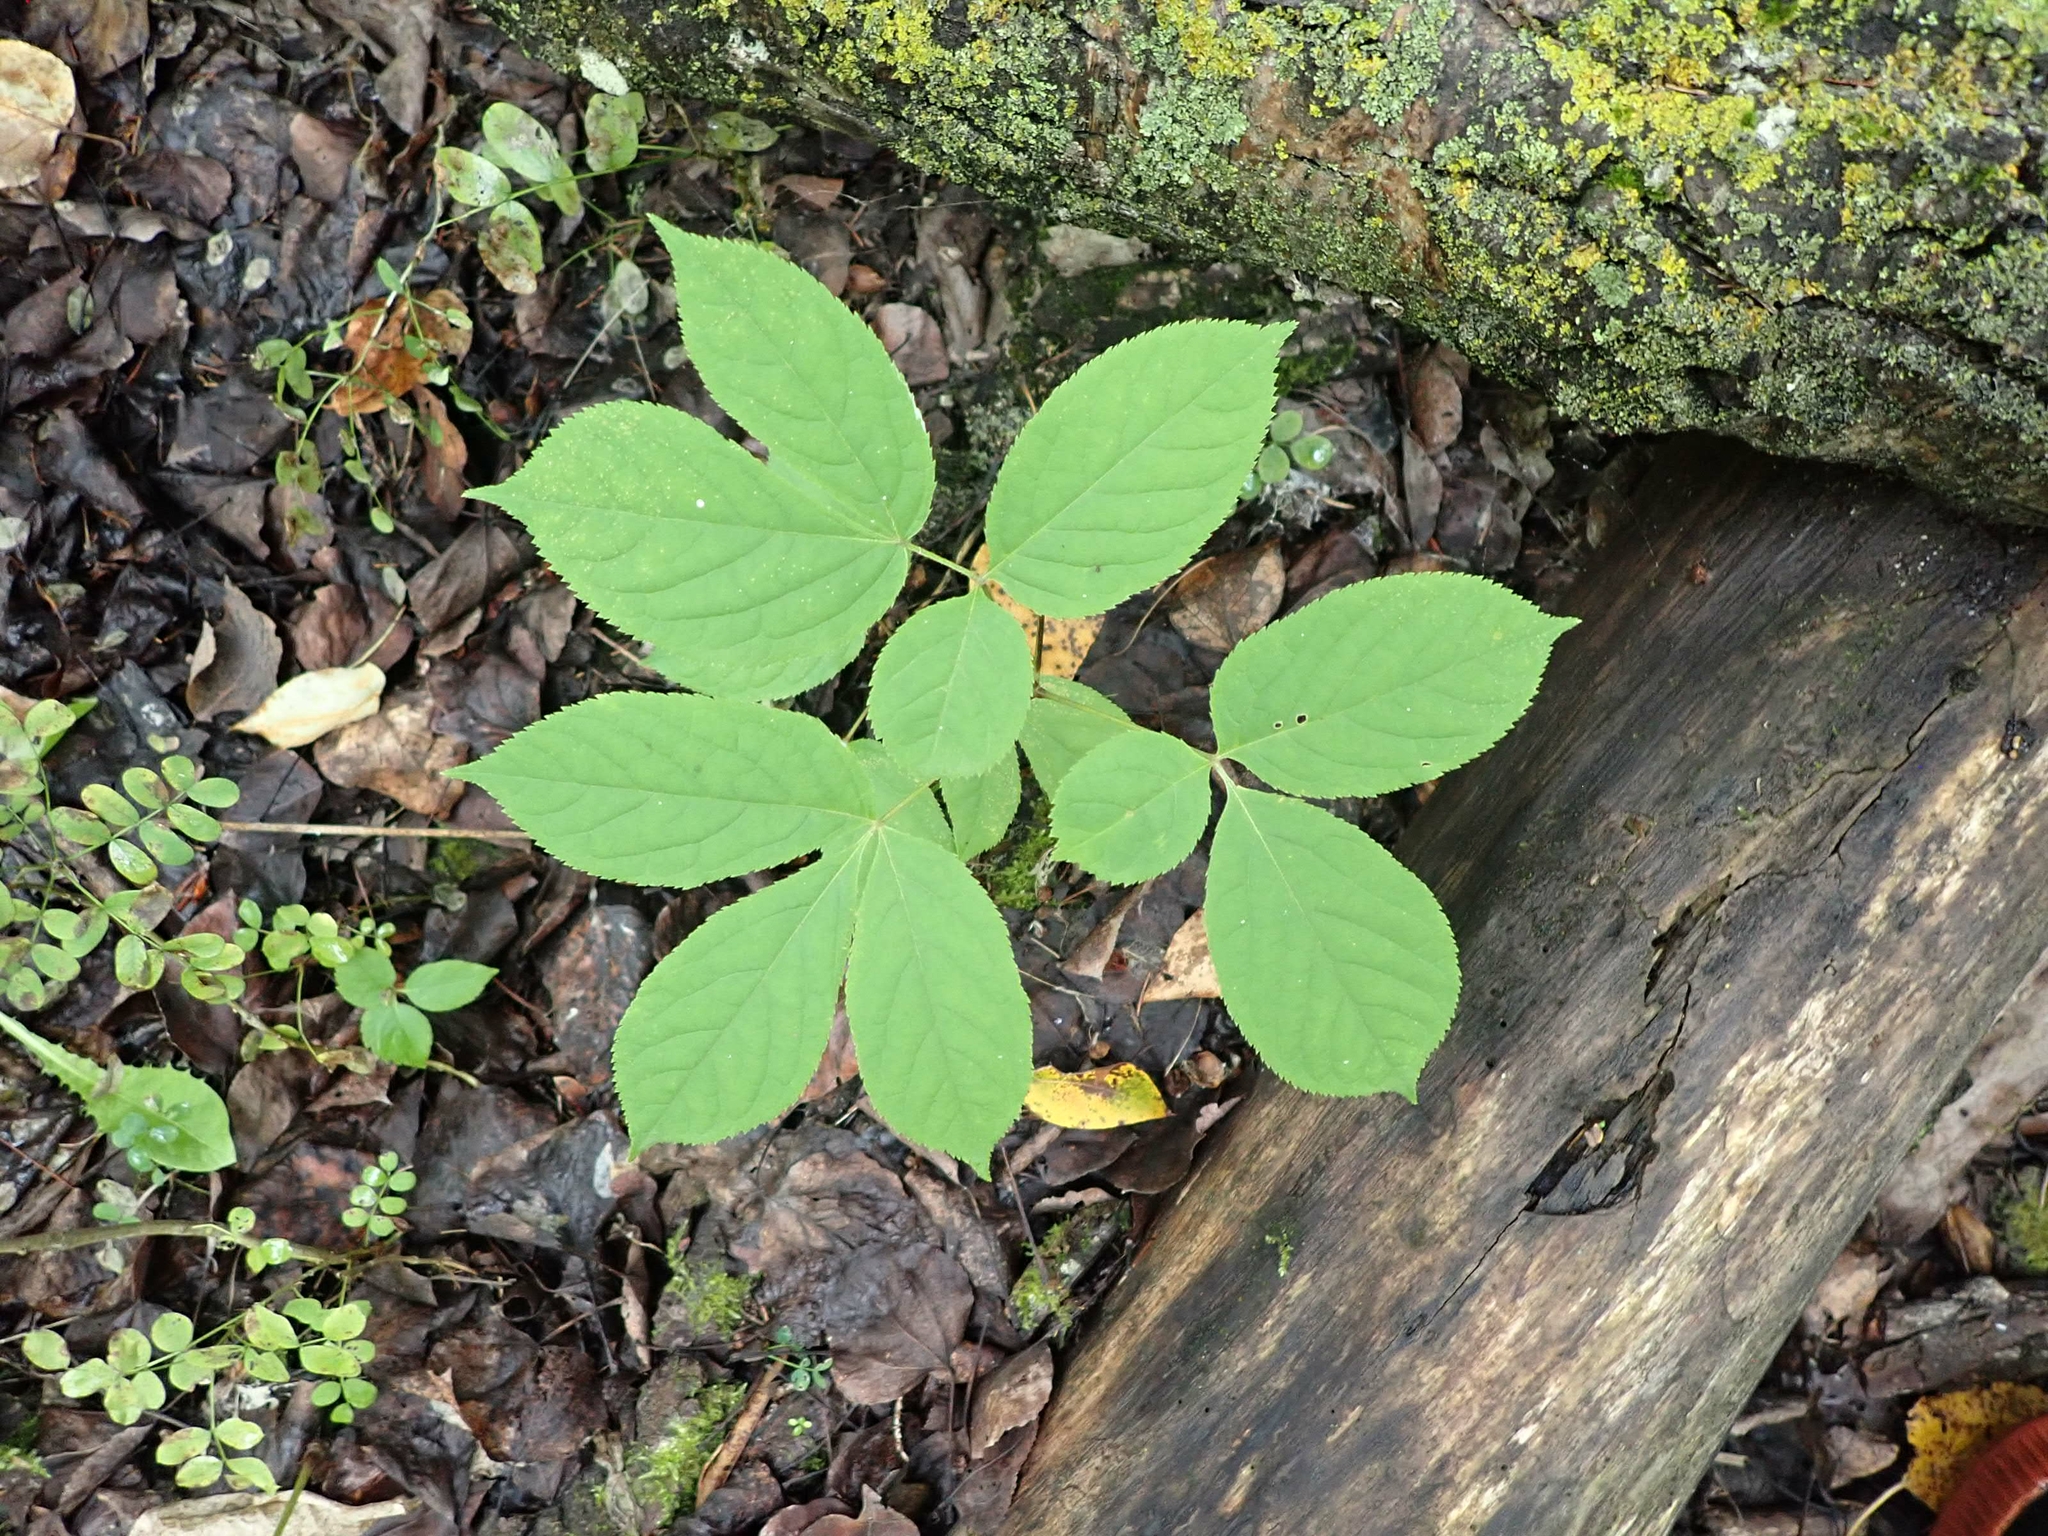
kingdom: Plantae
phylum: Tracheophyta
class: Magnoliopsida
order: Apiales
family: Araliaceae
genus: Aralia
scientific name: Aralia nudicaulis
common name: Wild sarsaparilla
